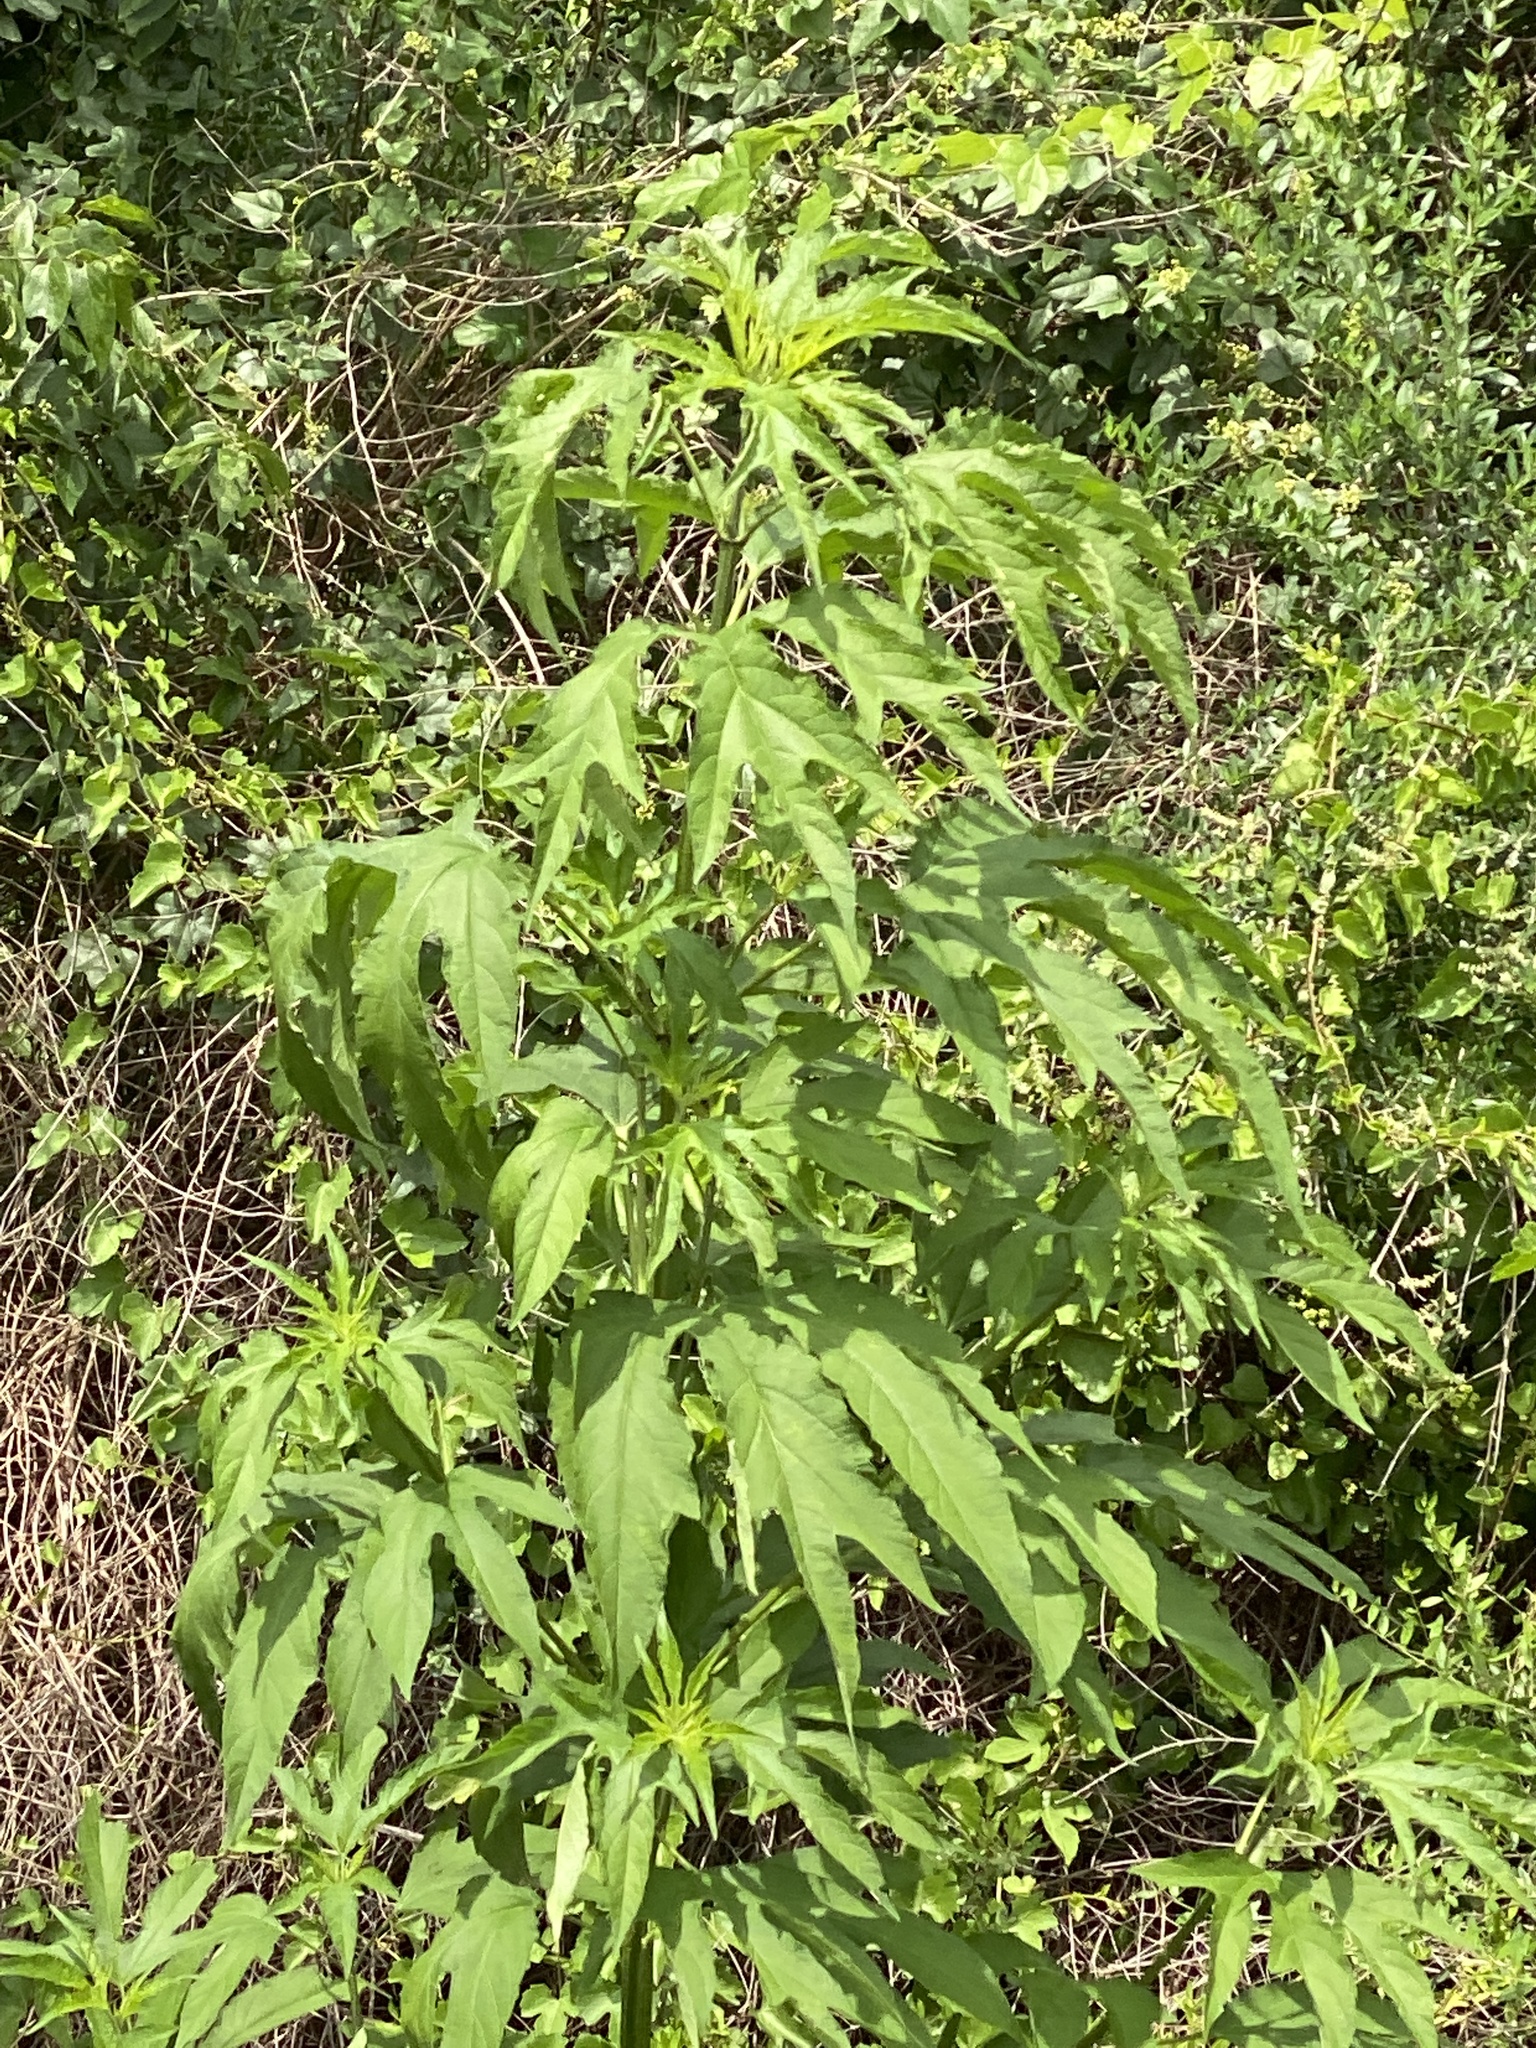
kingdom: Plantae
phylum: Tracheophyta
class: Magnoliopsida
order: Asterales
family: Asteraceae
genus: Ambrosia
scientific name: Ambrosia trifida
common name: Giant ragweed
